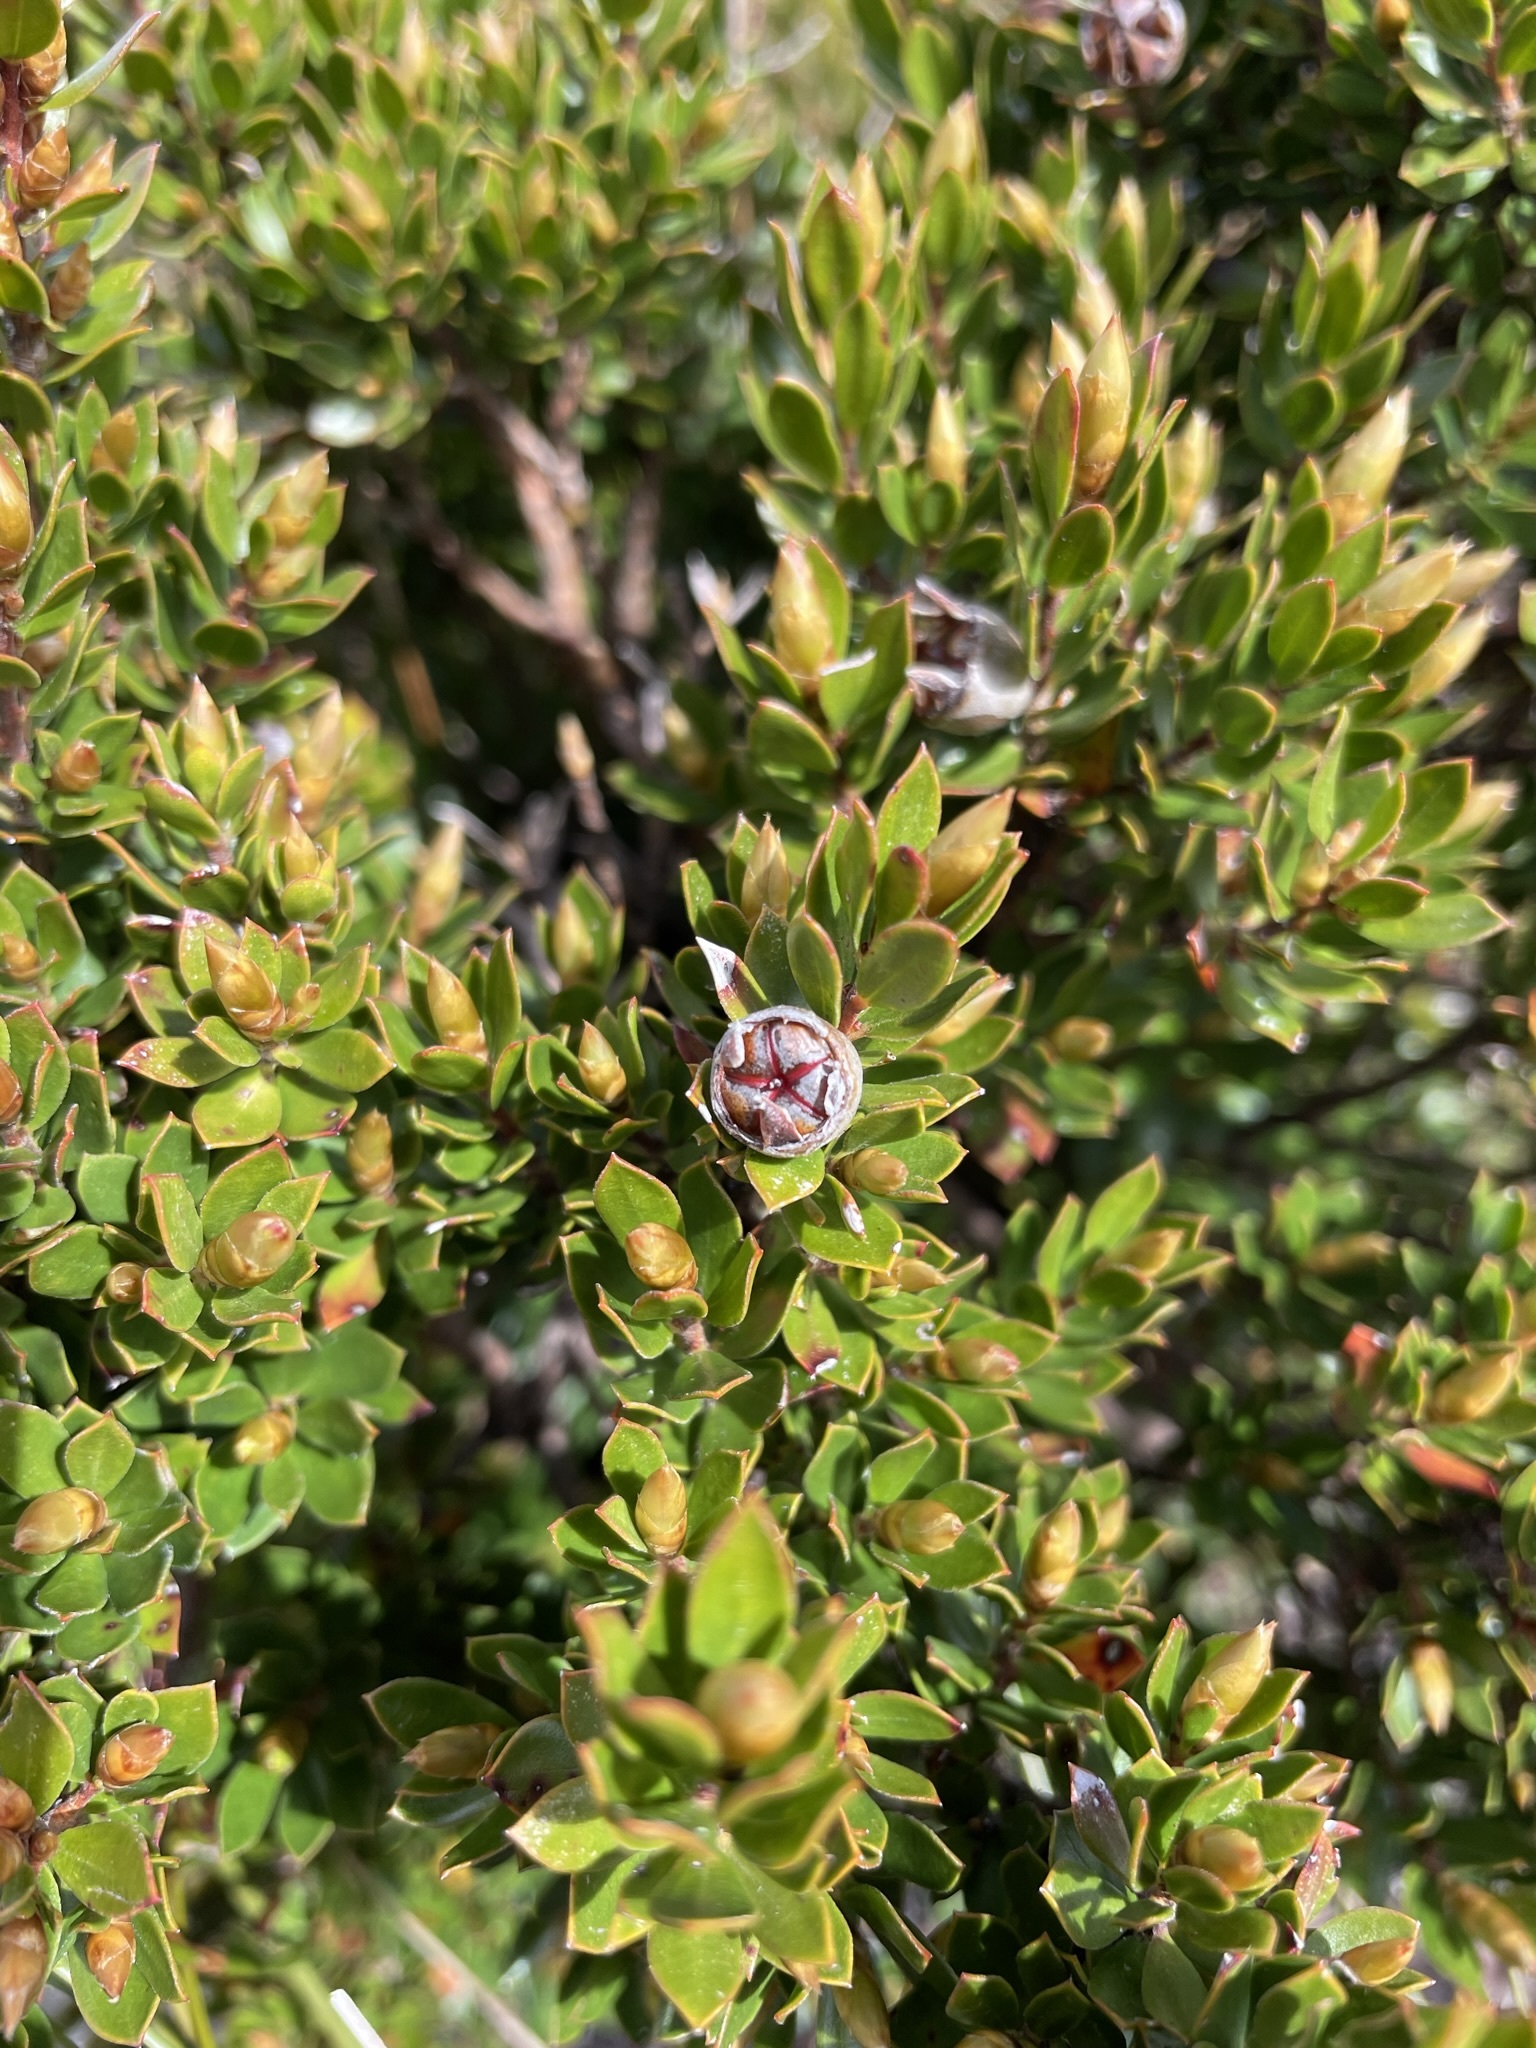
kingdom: Plantae
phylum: Tracheophyta
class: Magnoliopsida
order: Myrtales
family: Myrtaceae
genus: Leptospermum
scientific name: Leptospermum nitidum
